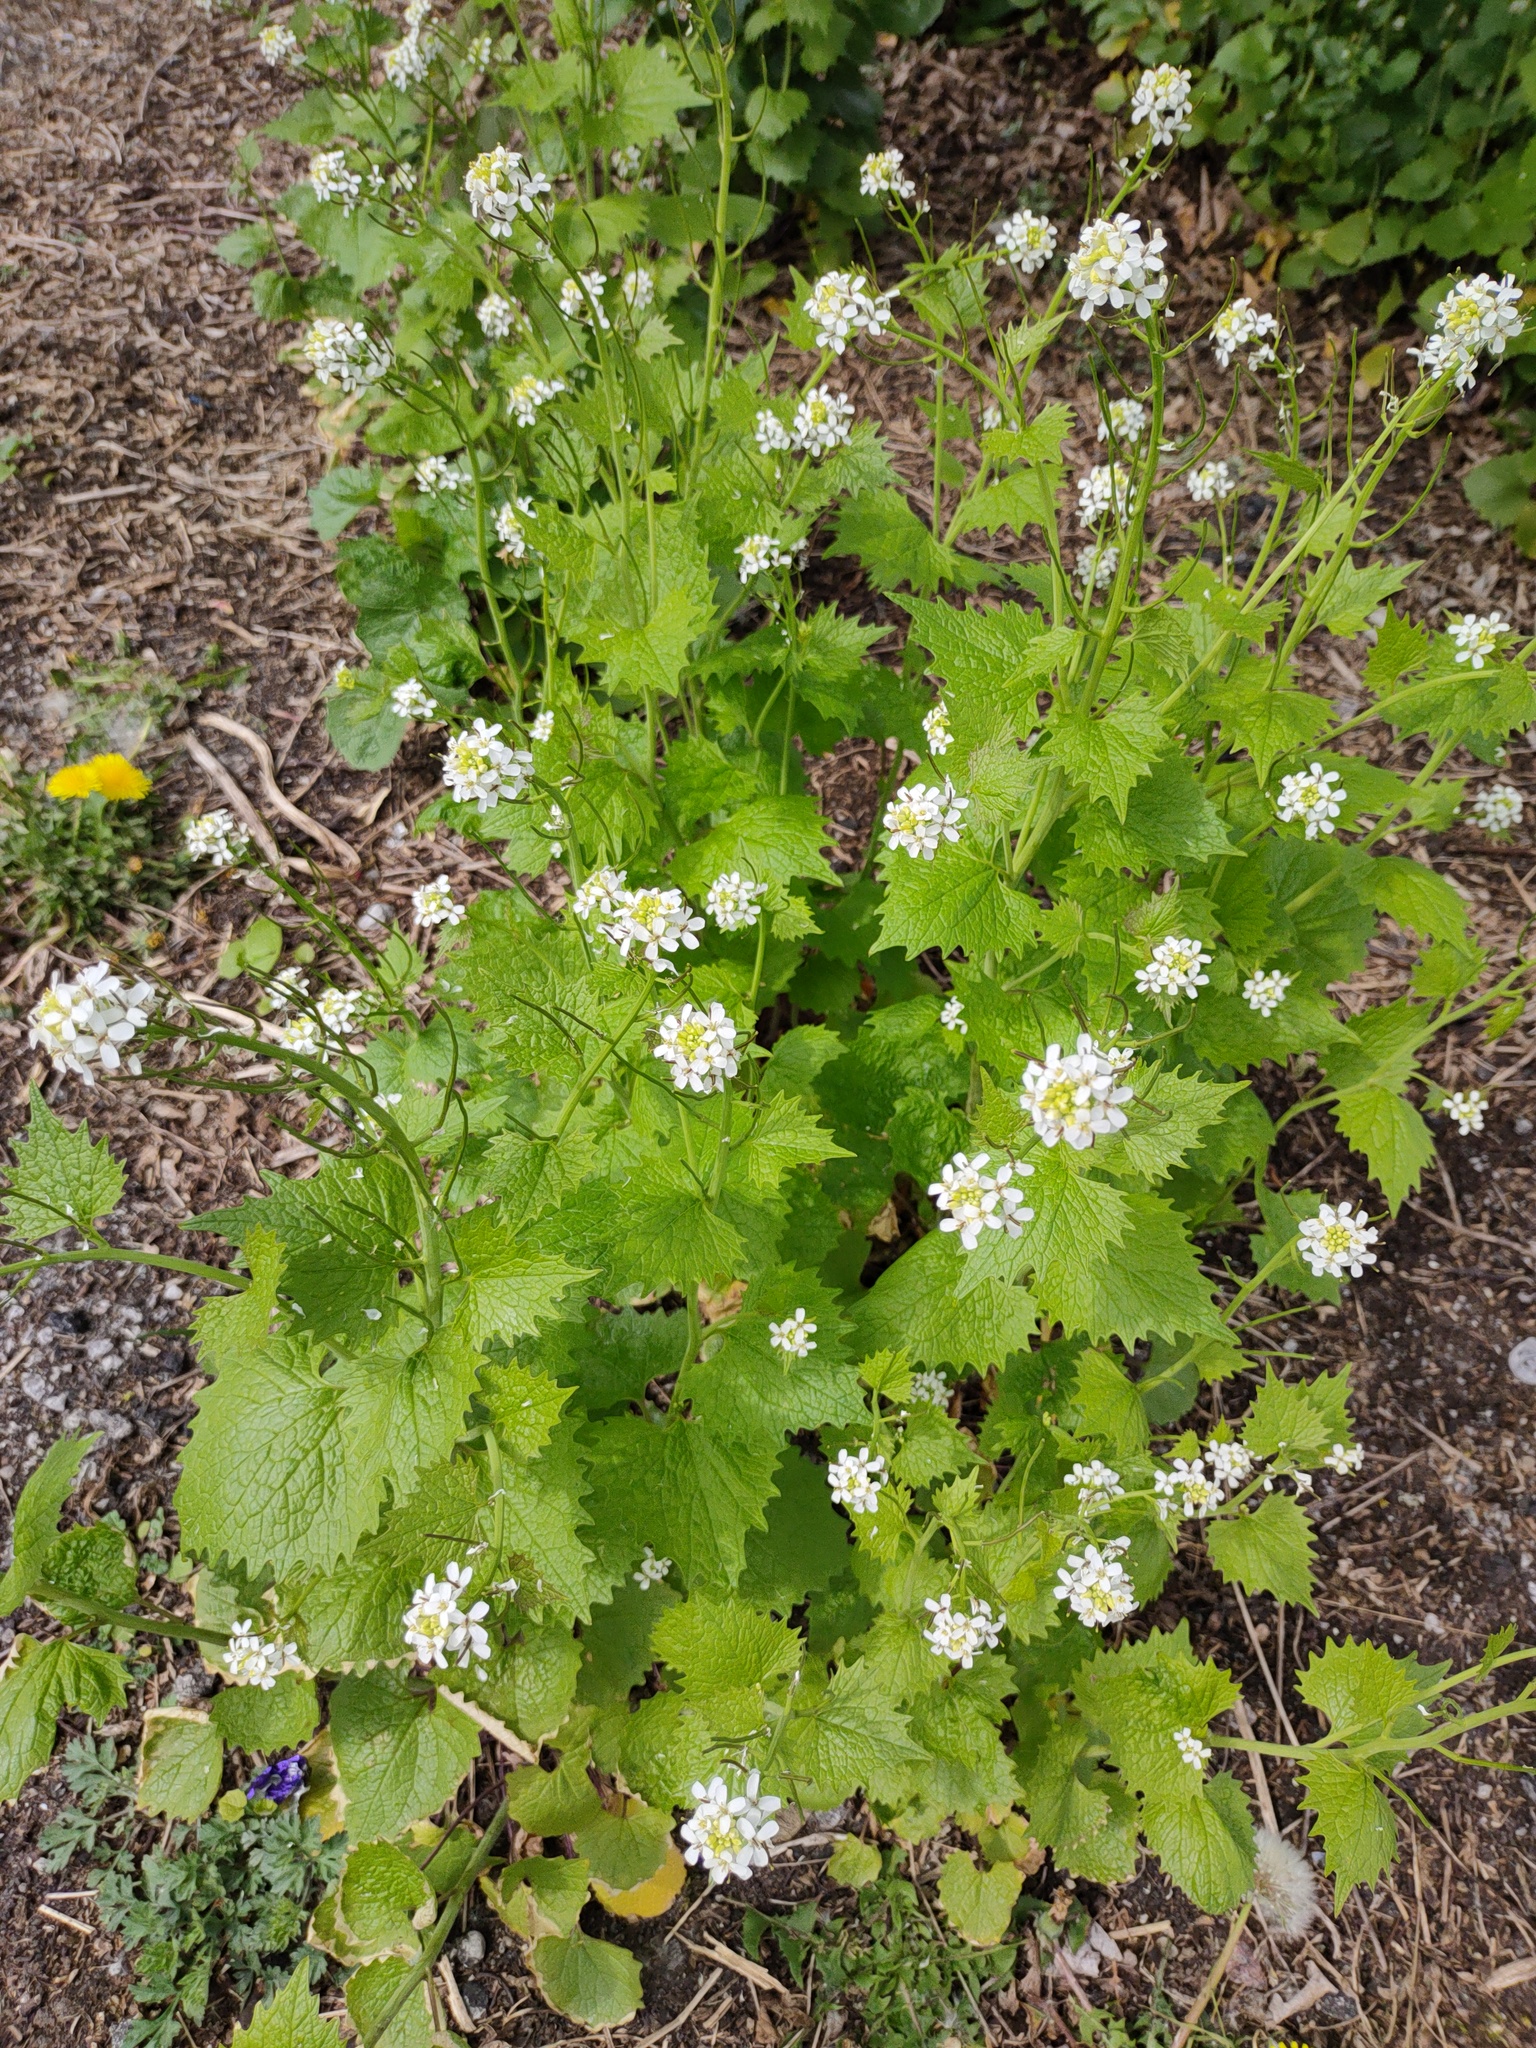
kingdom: Plantae
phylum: Tracheophyta
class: Magnoliopsida
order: Brassicales
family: Brassicaceae
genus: Alliaria
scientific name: Alliaria petiolata
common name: Garlic mustard
